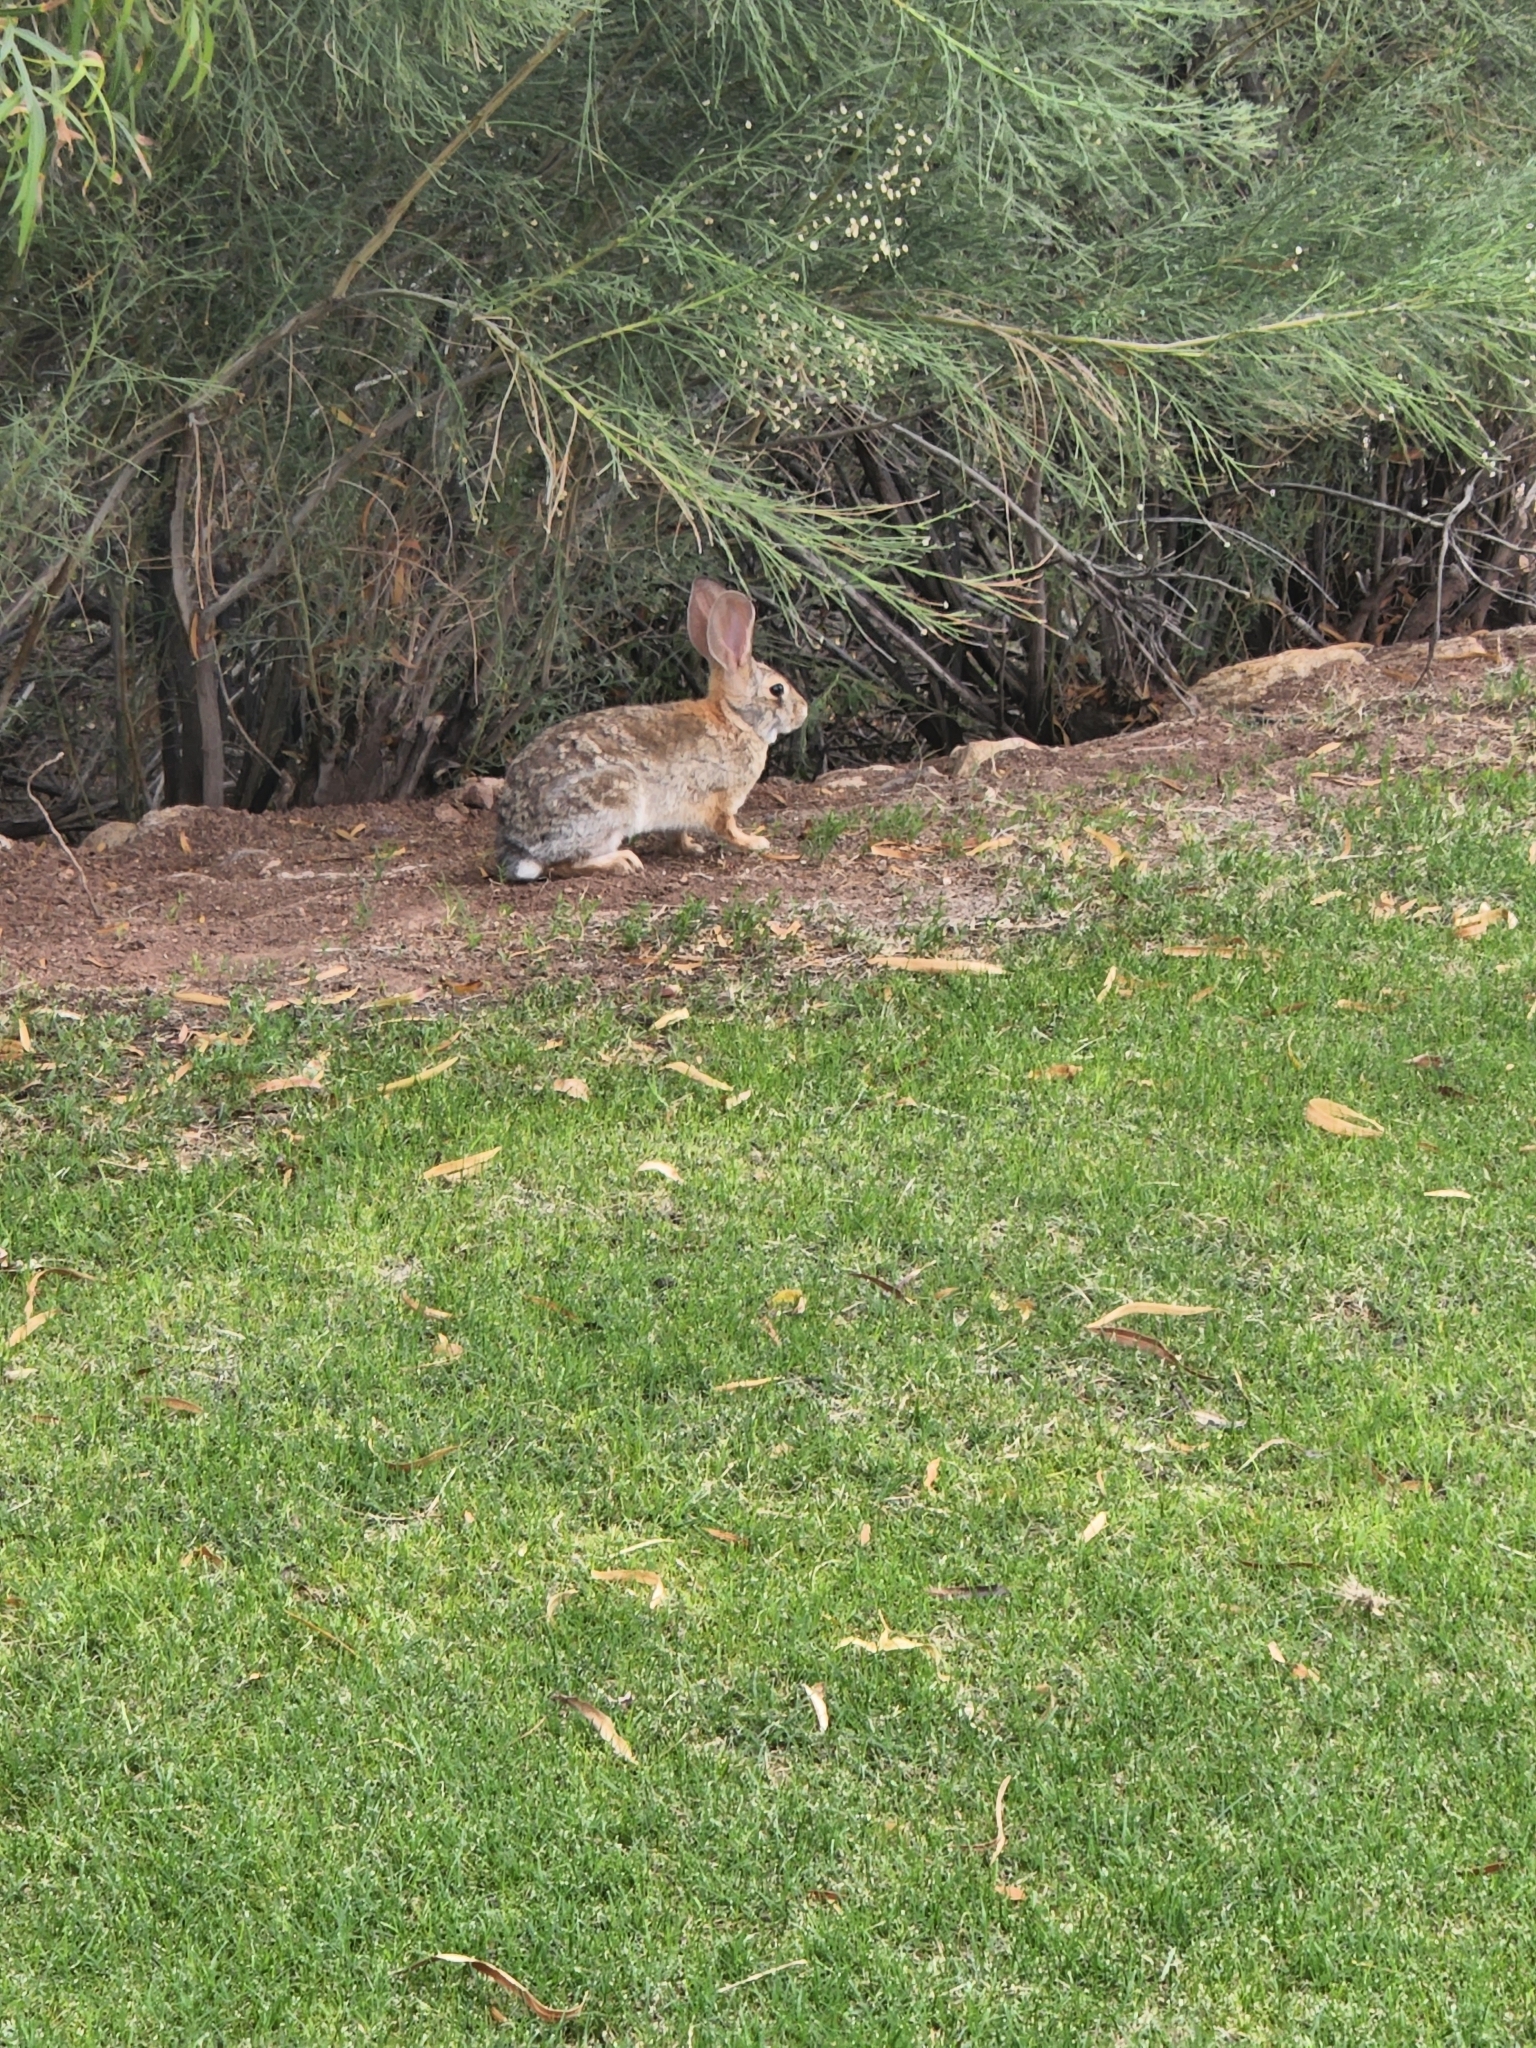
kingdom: Animalia
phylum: Chordata
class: Mammalia
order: Lagomorpha
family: Leporidae
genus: Sylvilagus
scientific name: Sylvilagus audubonii
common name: Desert cottontail
